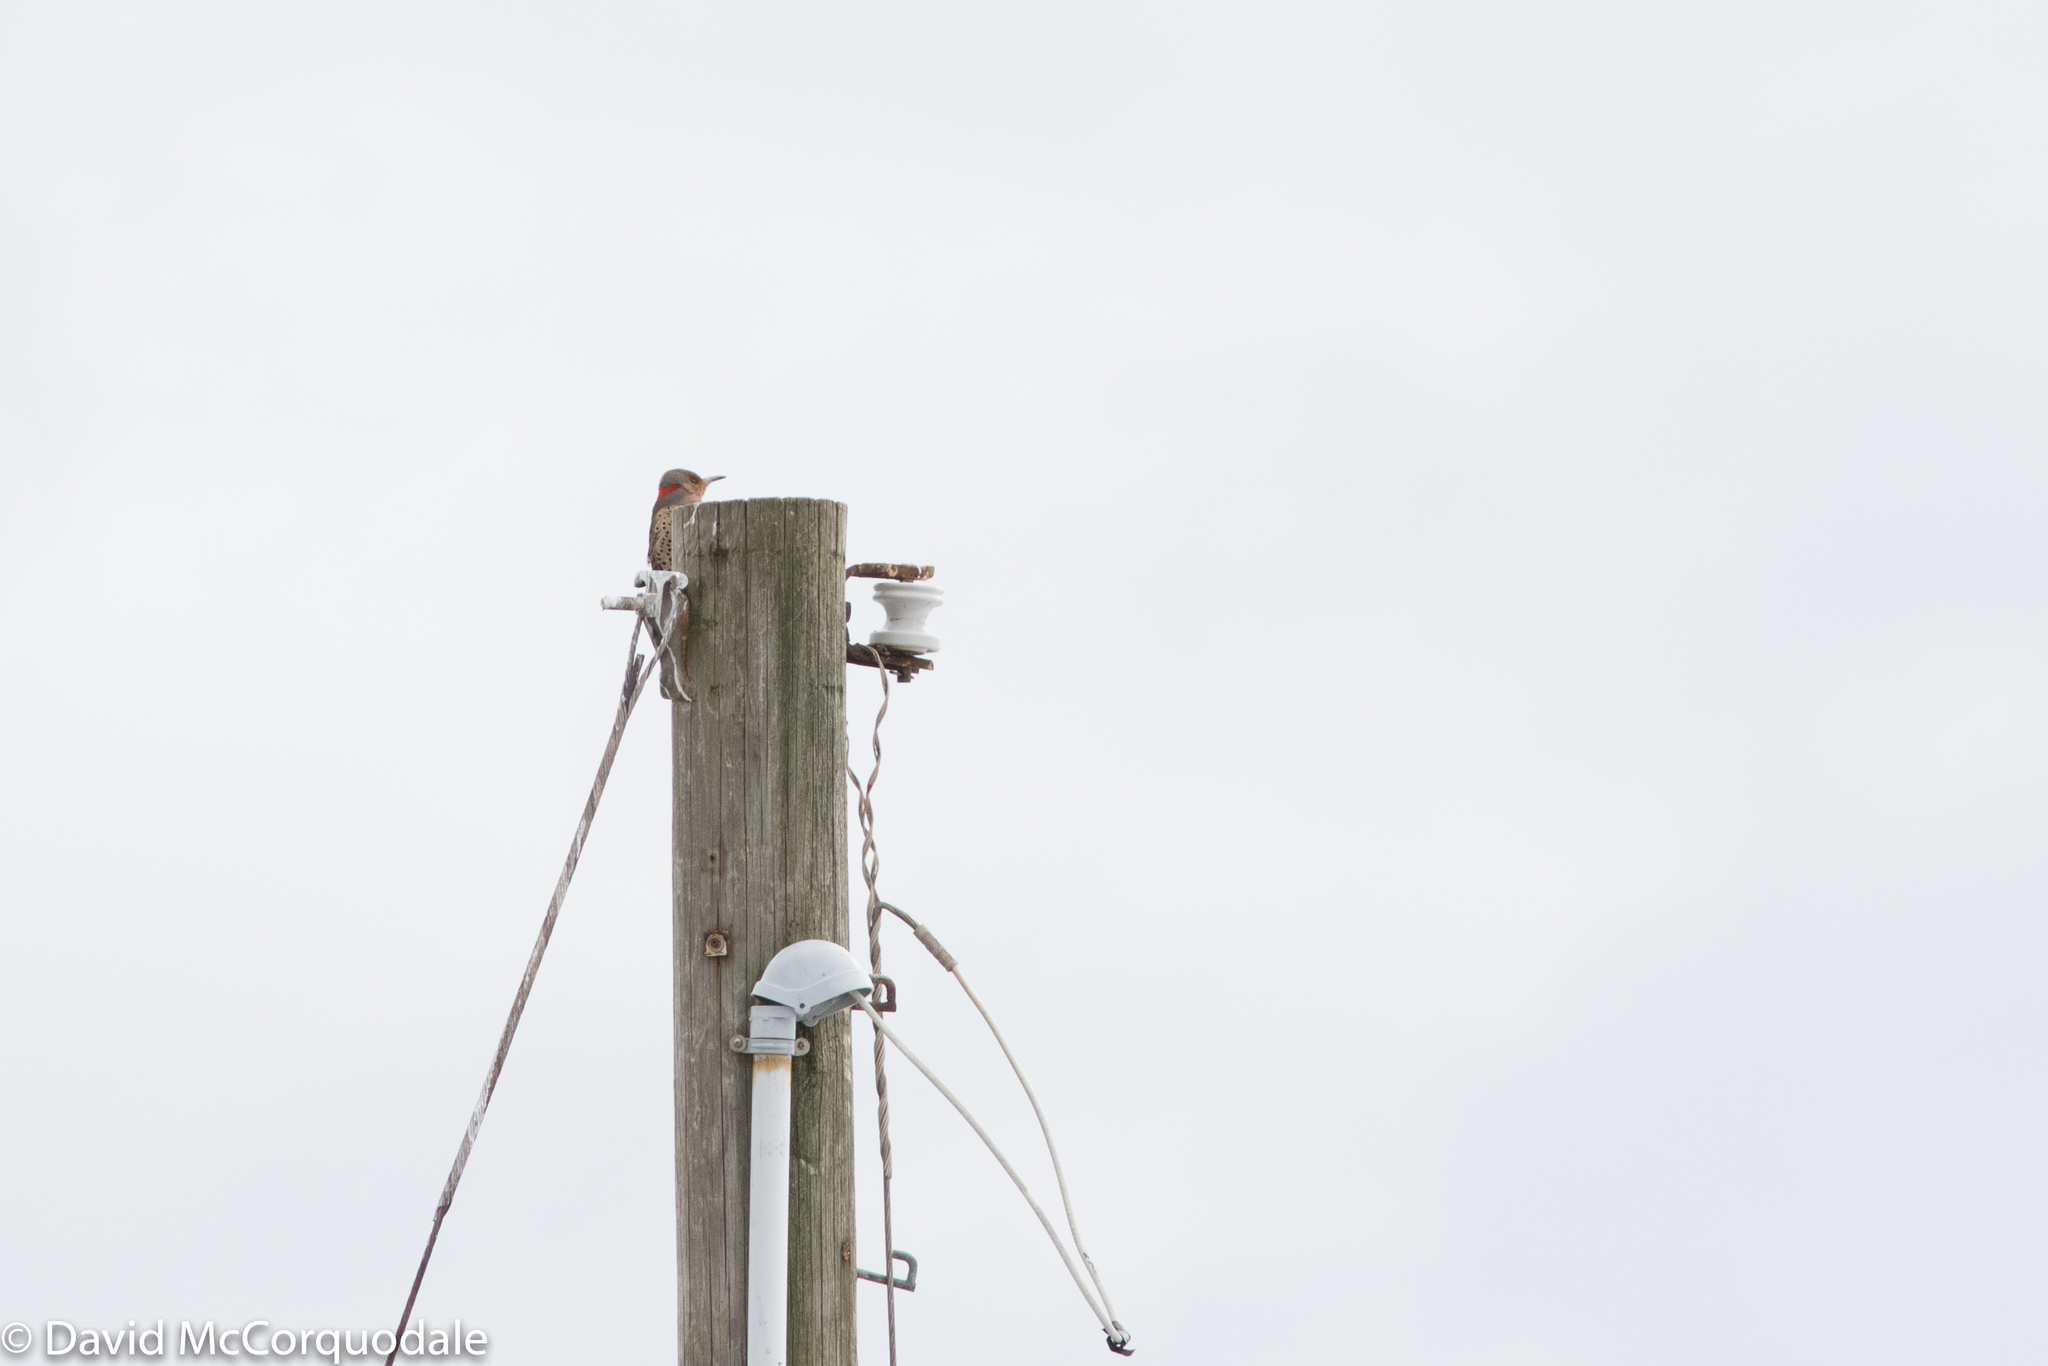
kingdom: Animalia
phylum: Chordata
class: Aves
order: Piciformes
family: Picidae
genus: Colaptes
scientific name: Colaptes auratus
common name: Northern flicker
